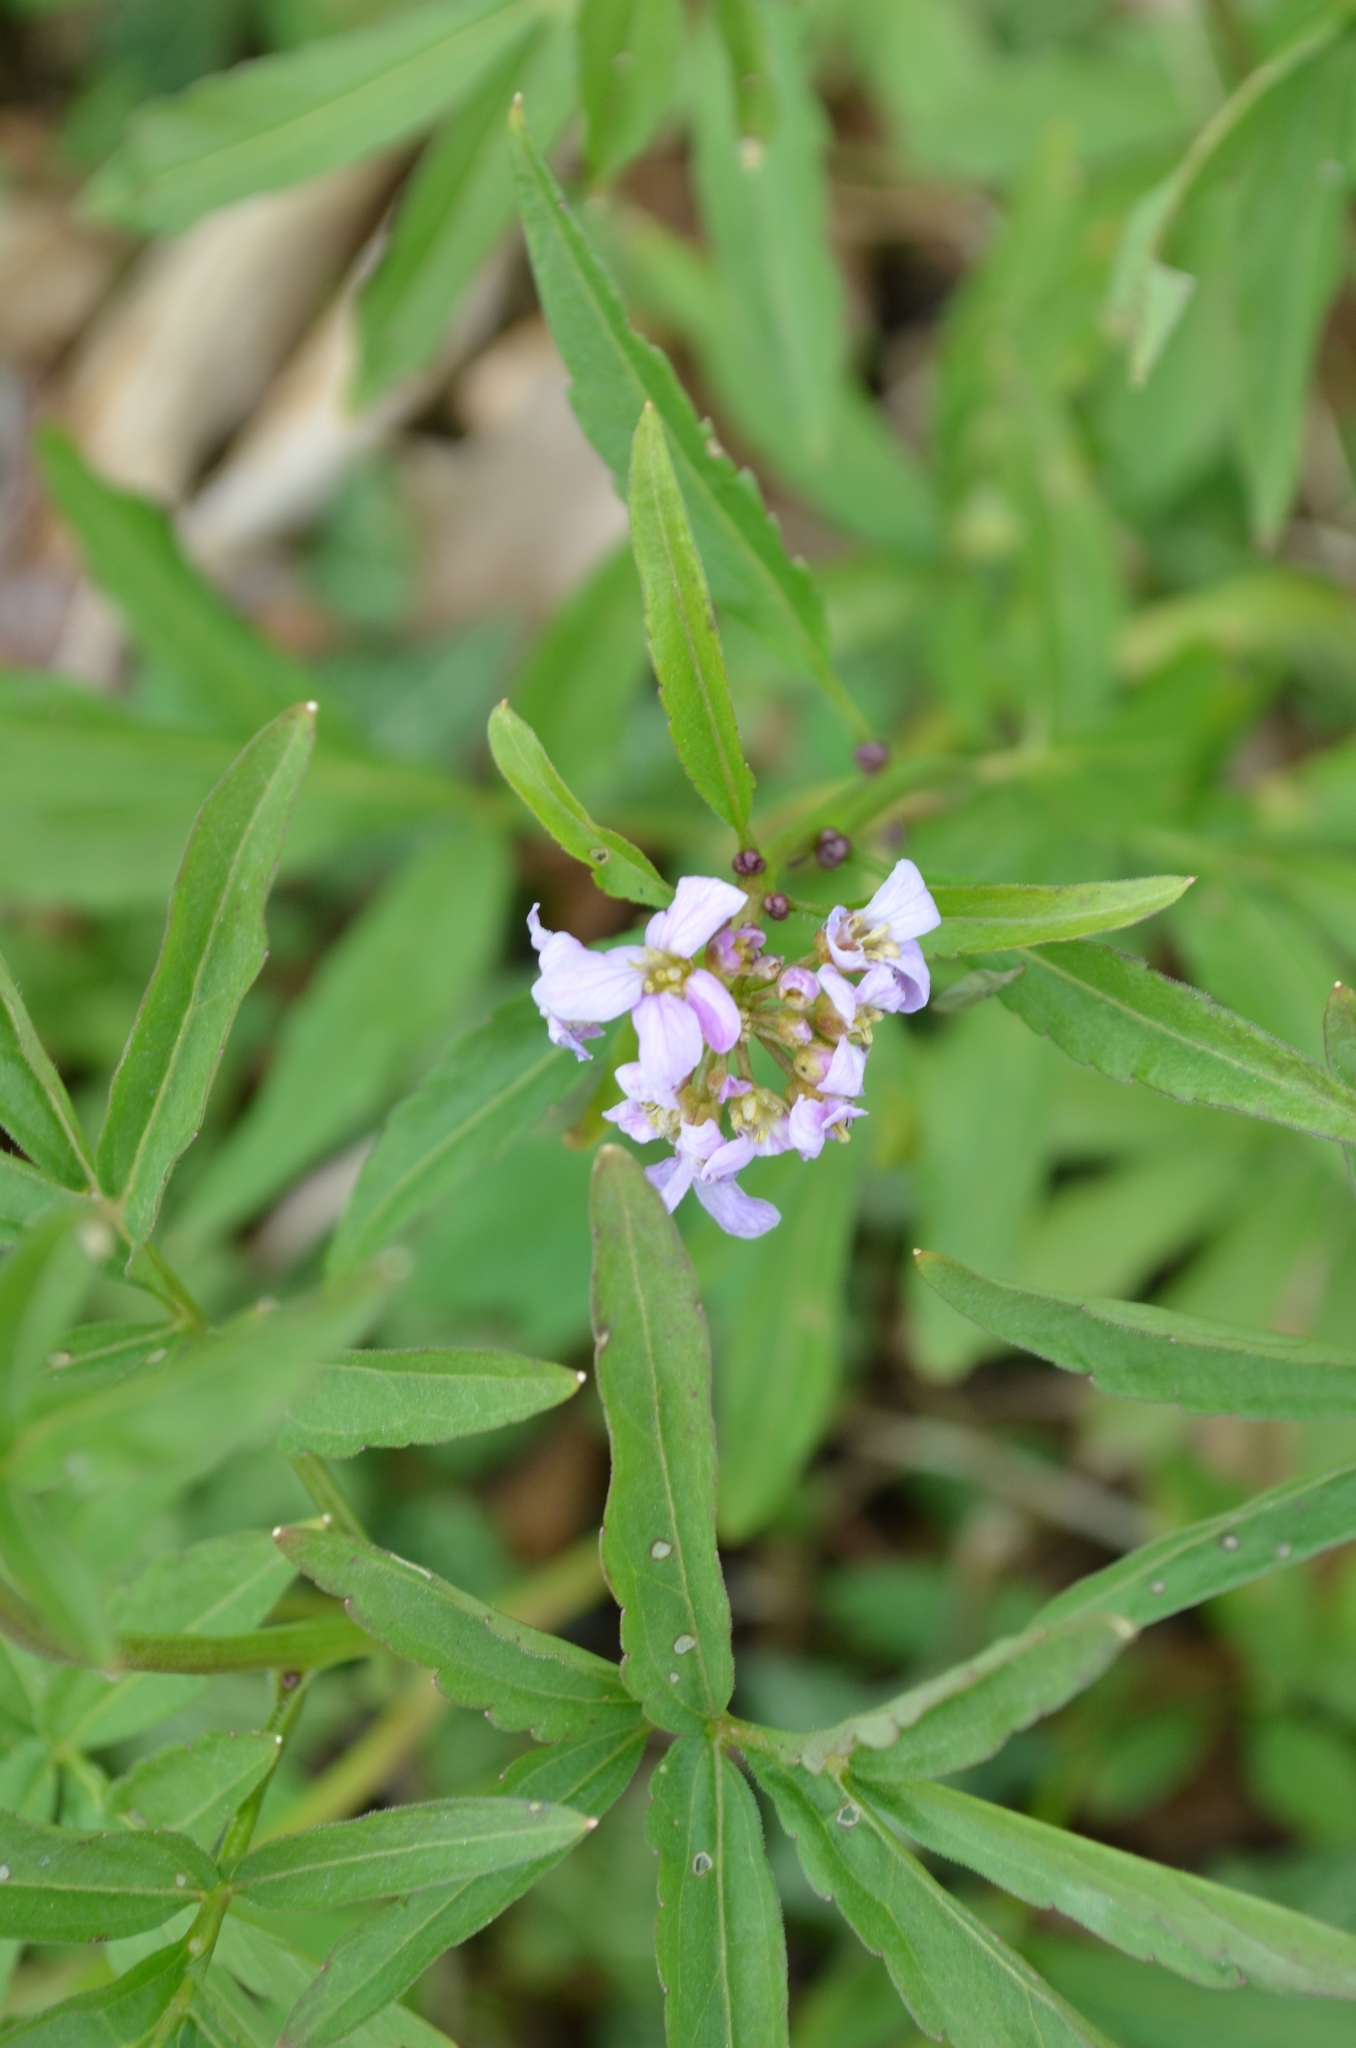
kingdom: Plantae
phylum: Tracheophyta
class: Magnoliopsida
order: Brassicales
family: Brassicaceae
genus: Cardamine
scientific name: Cardamine bulbifera
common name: Coralroot bittercress
